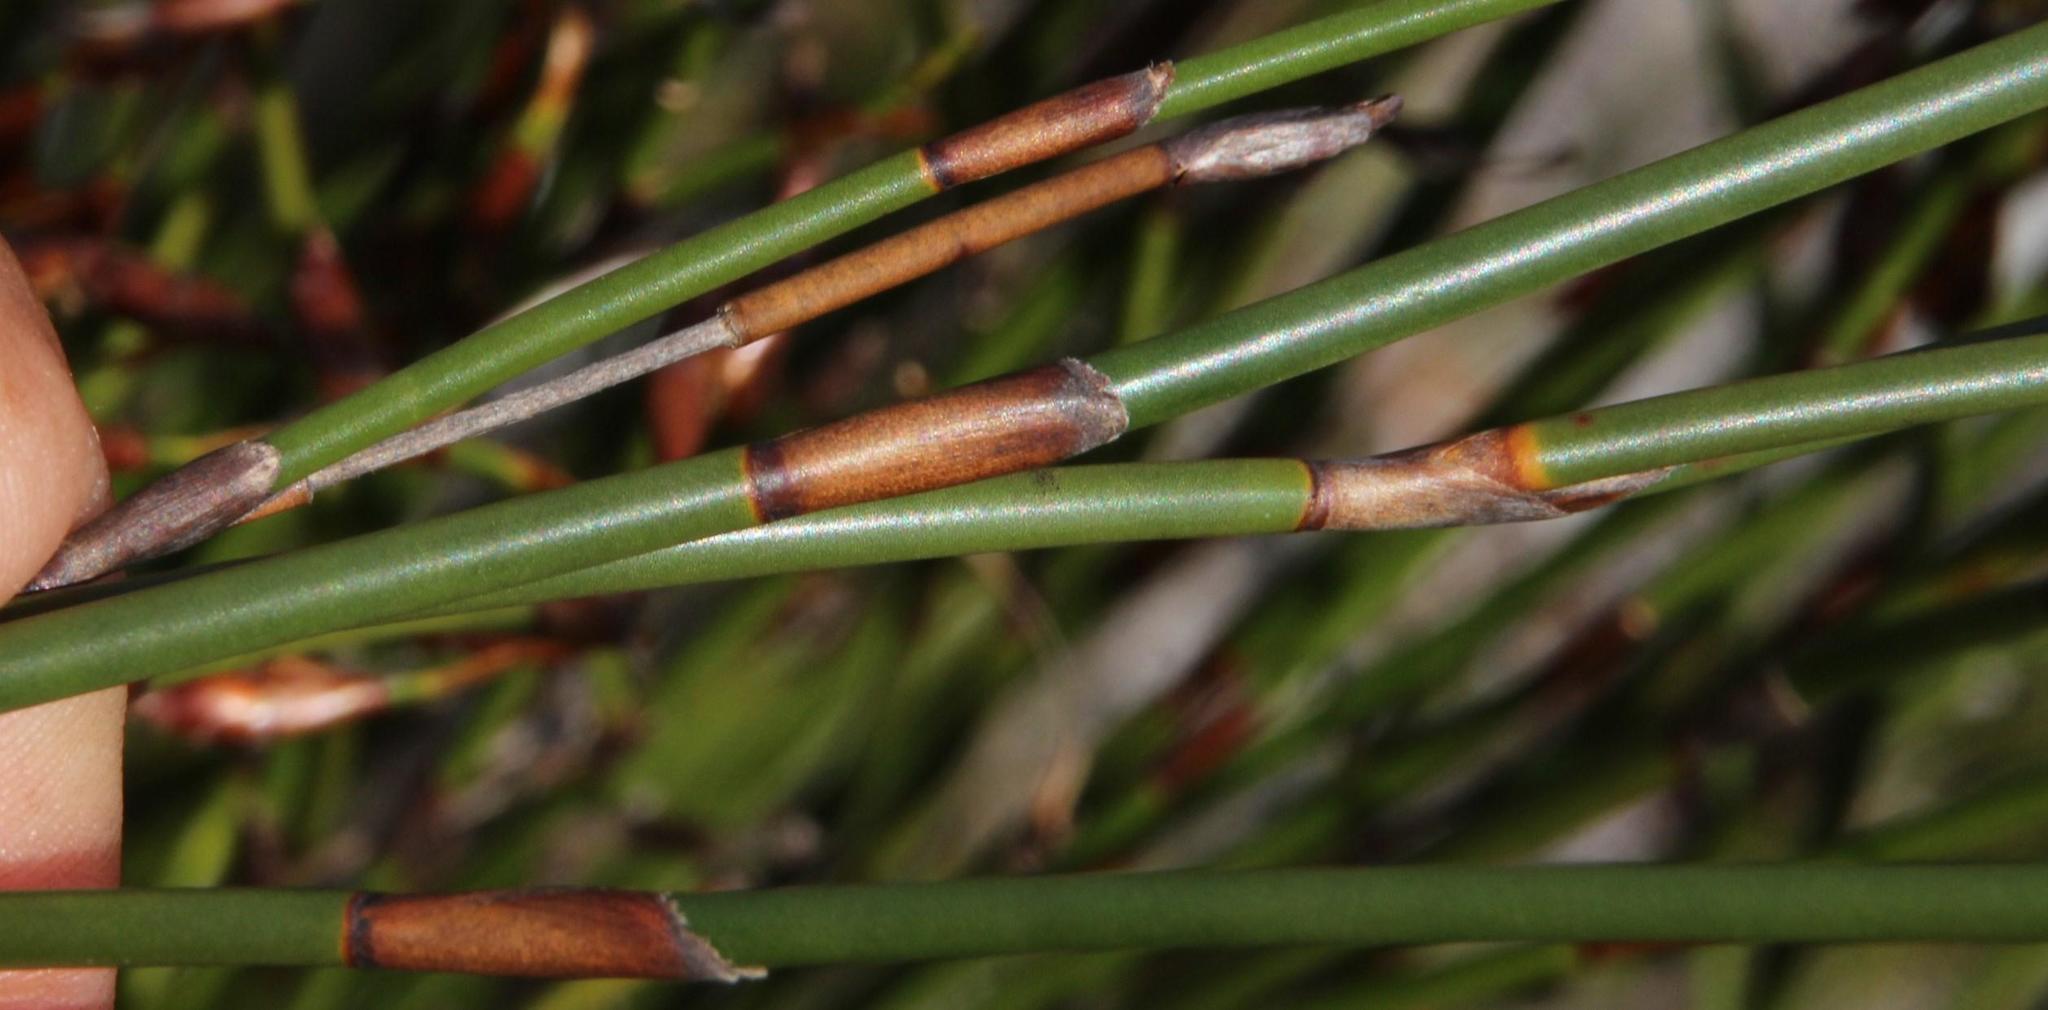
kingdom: Plantae
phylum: Tracheophyta
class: Liliopsida
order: Poales
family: Restionaceae
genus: Restio
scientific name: Restio egregius
